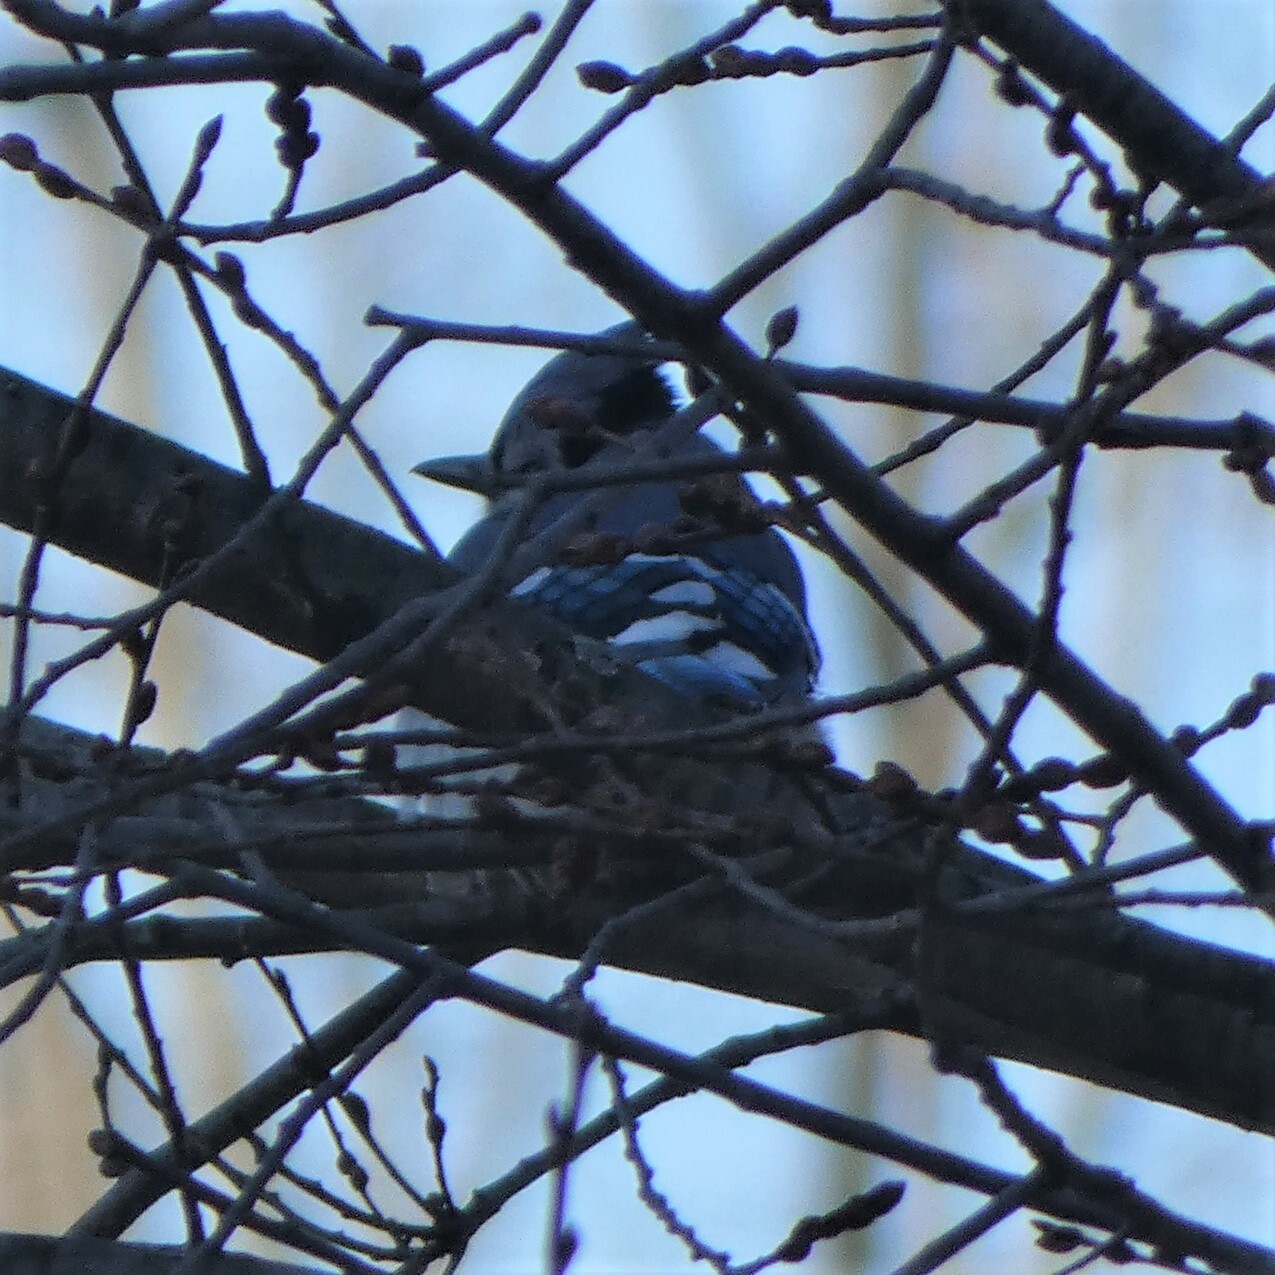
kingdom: Animalia
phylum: Chordata
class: Aves
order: Passeriformes
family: Corvidae
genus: Cyanocitta
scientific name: Cyanocitta cristata
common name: Blue jay
